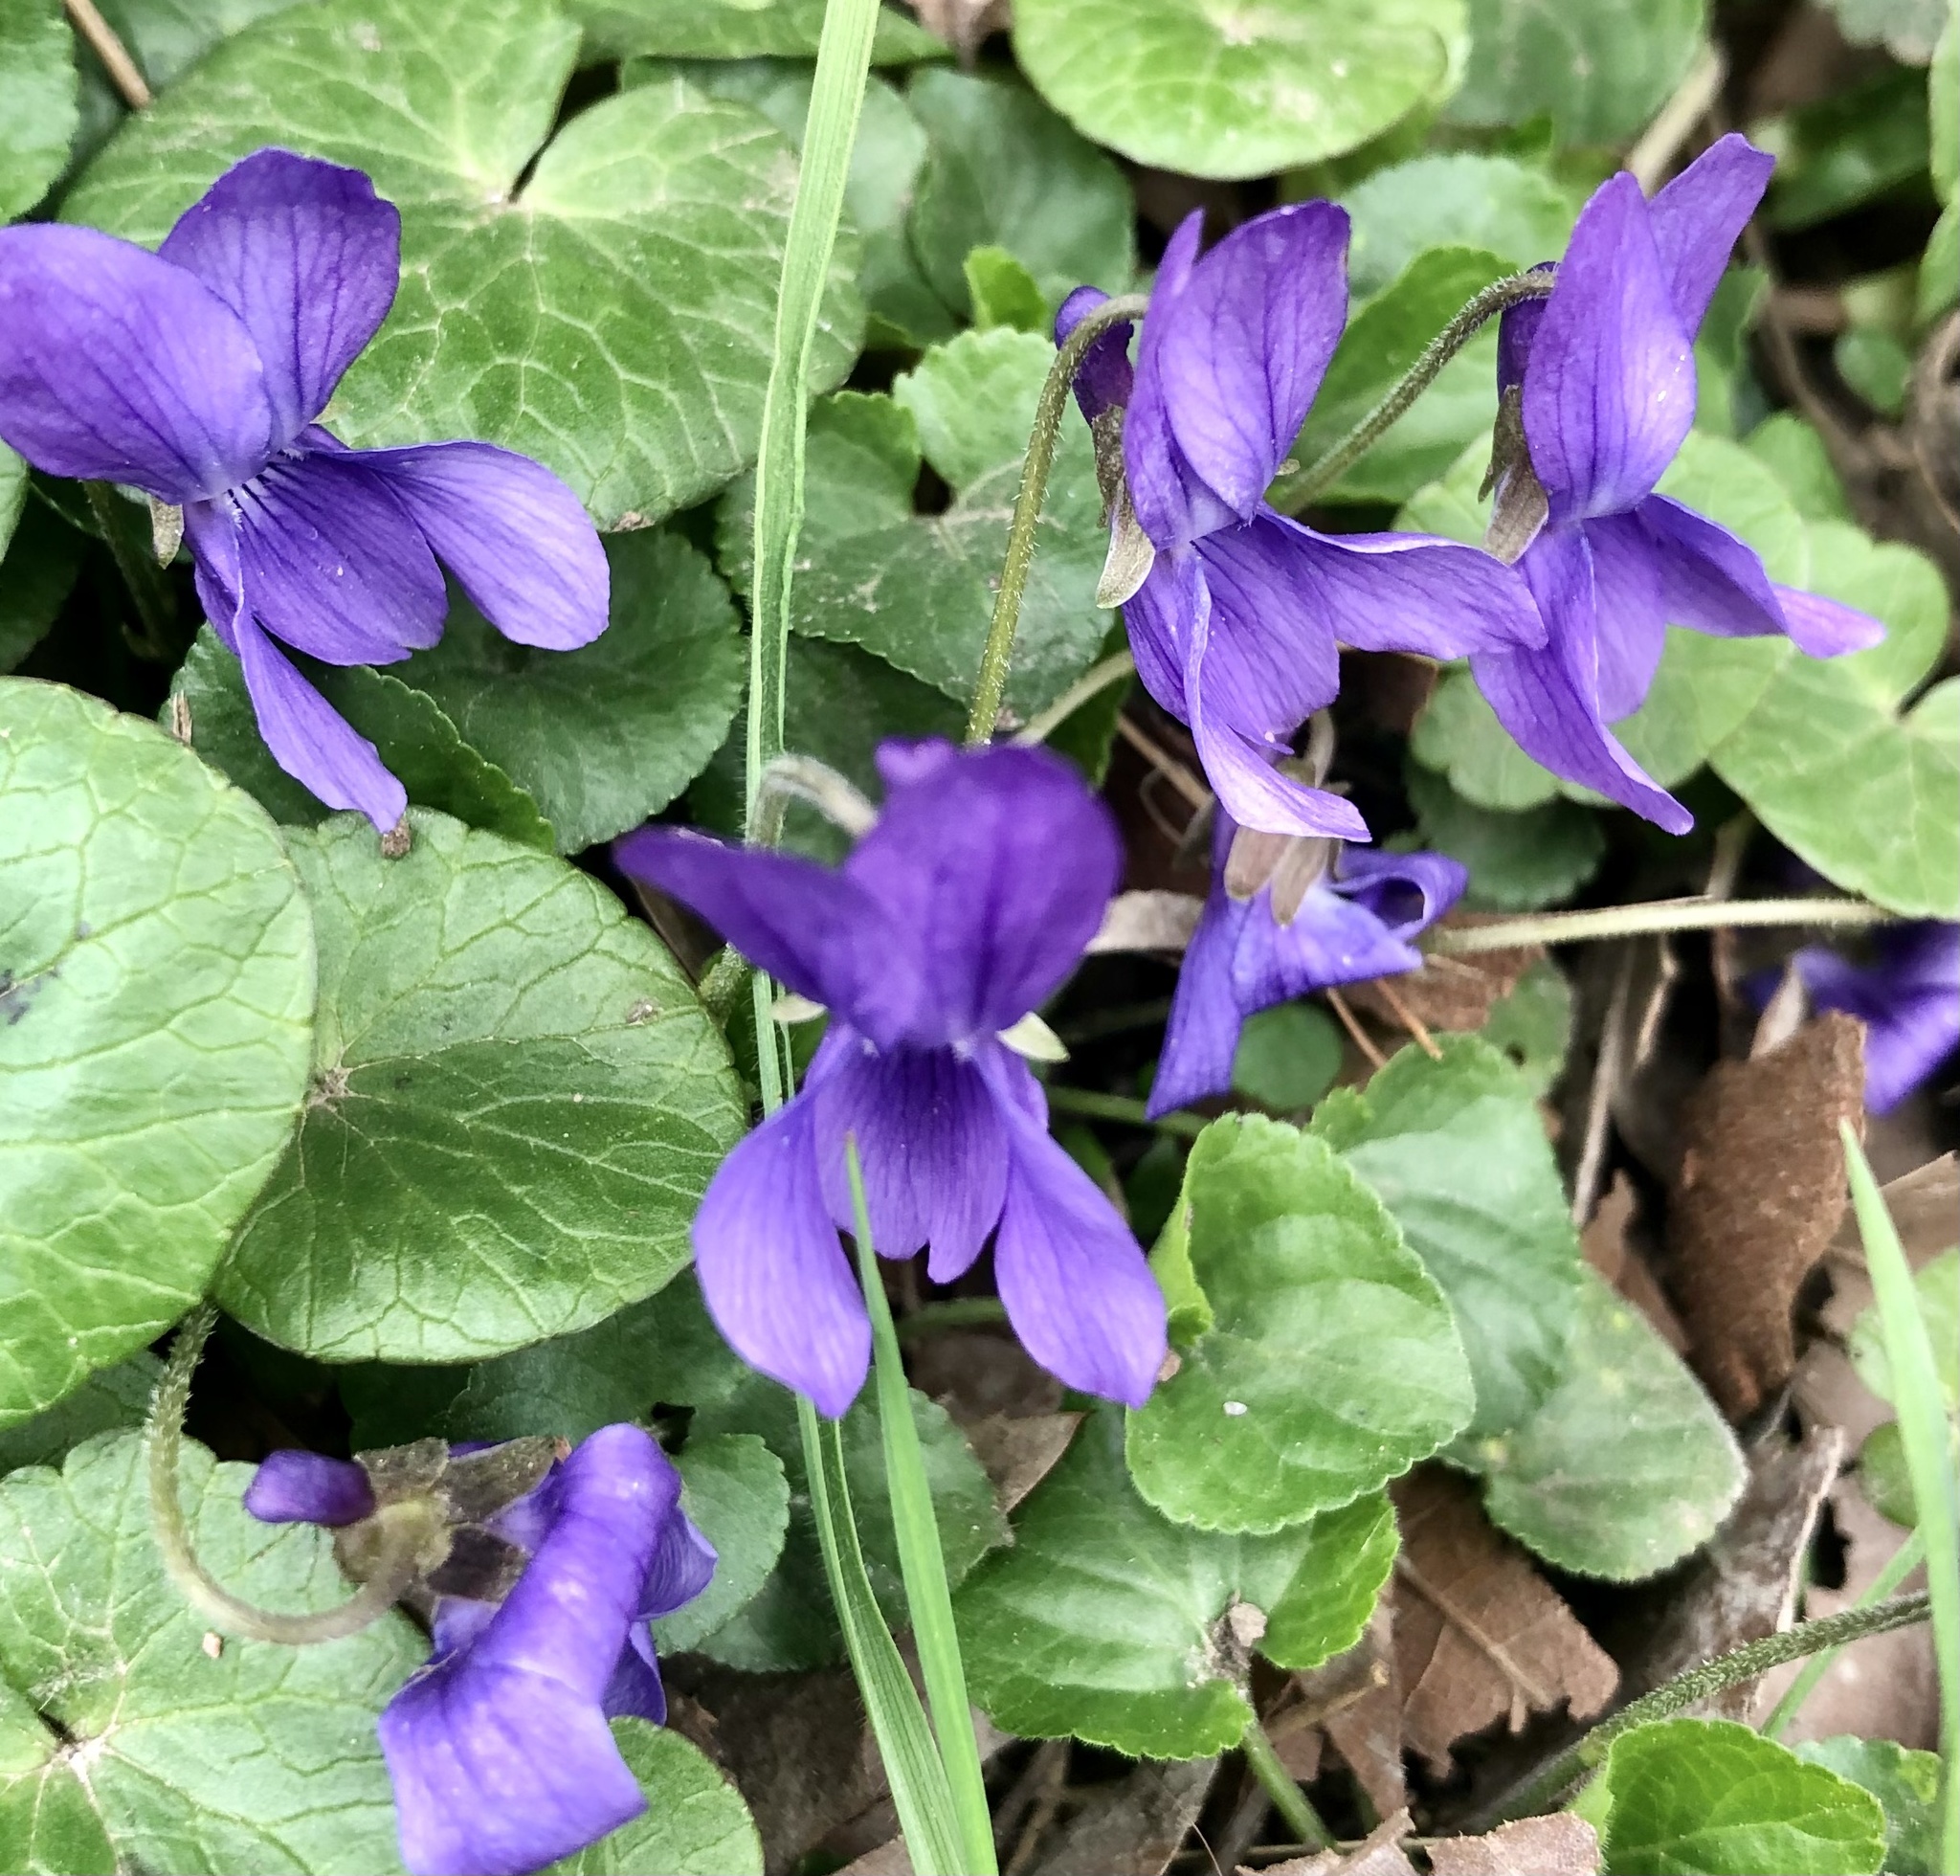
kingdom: Plantae
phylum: Tracheophyta
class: Magnoliopsida
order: Malpighiales
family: Violaceae
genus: Viola
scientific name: Viola odorata
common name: Sweet violet
